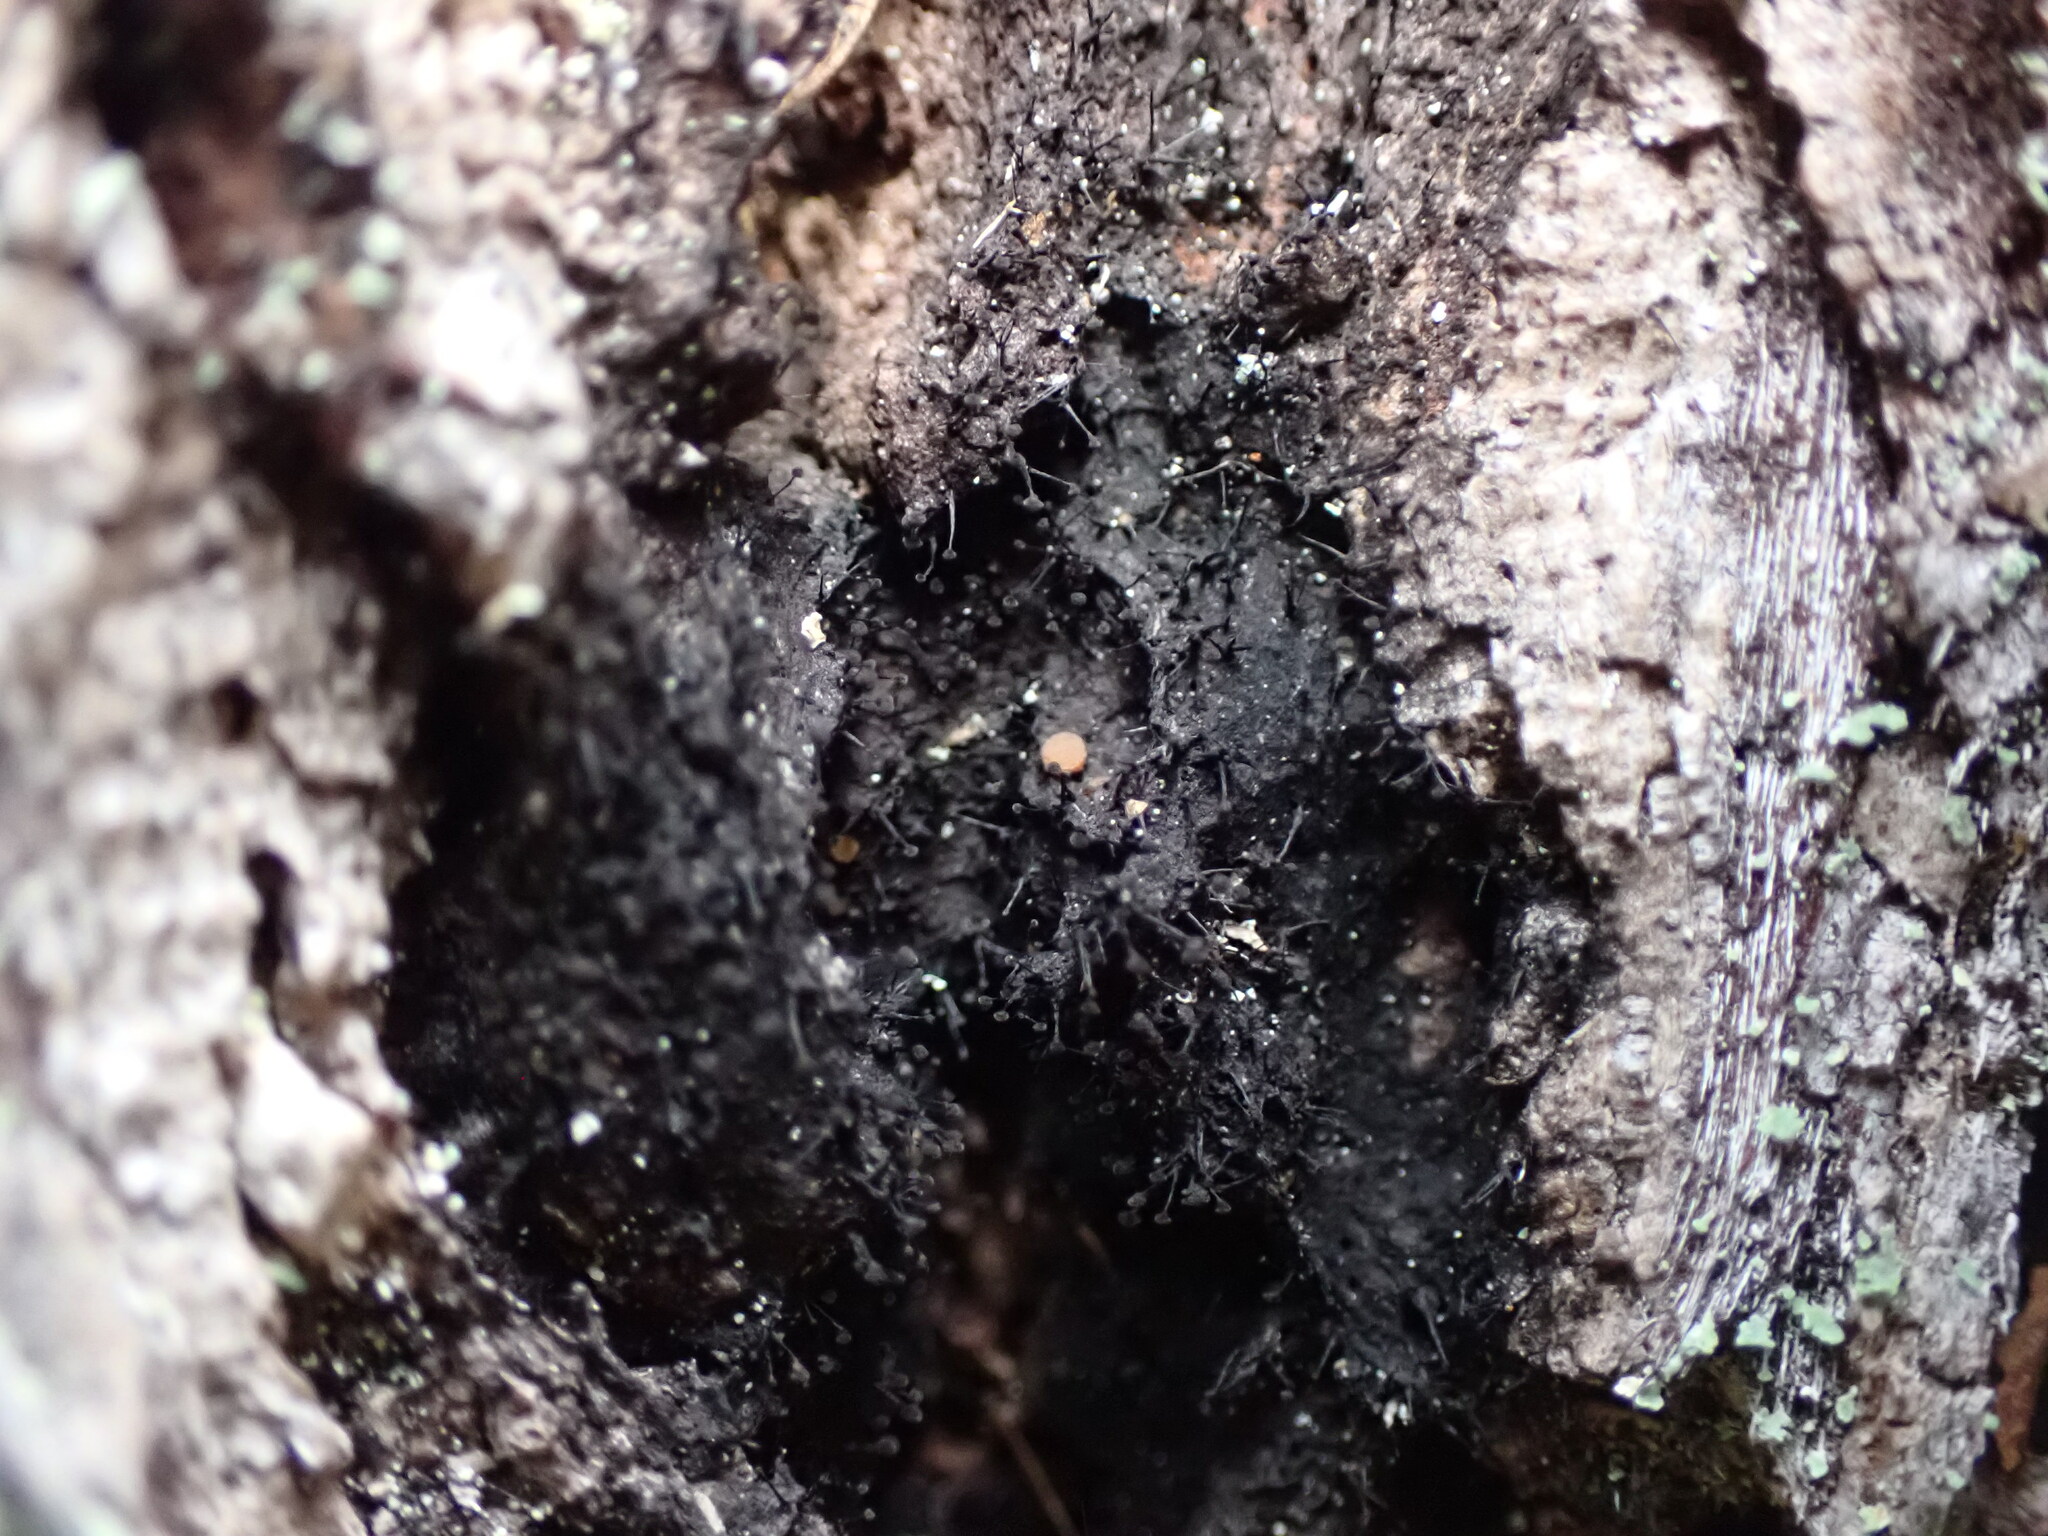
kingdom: Fungi
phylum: Ascomycota
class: Leotiomycetes
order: Helotiales
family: Amorphothecaceae
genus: Sorocybe
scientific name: Sorocybe resinae
